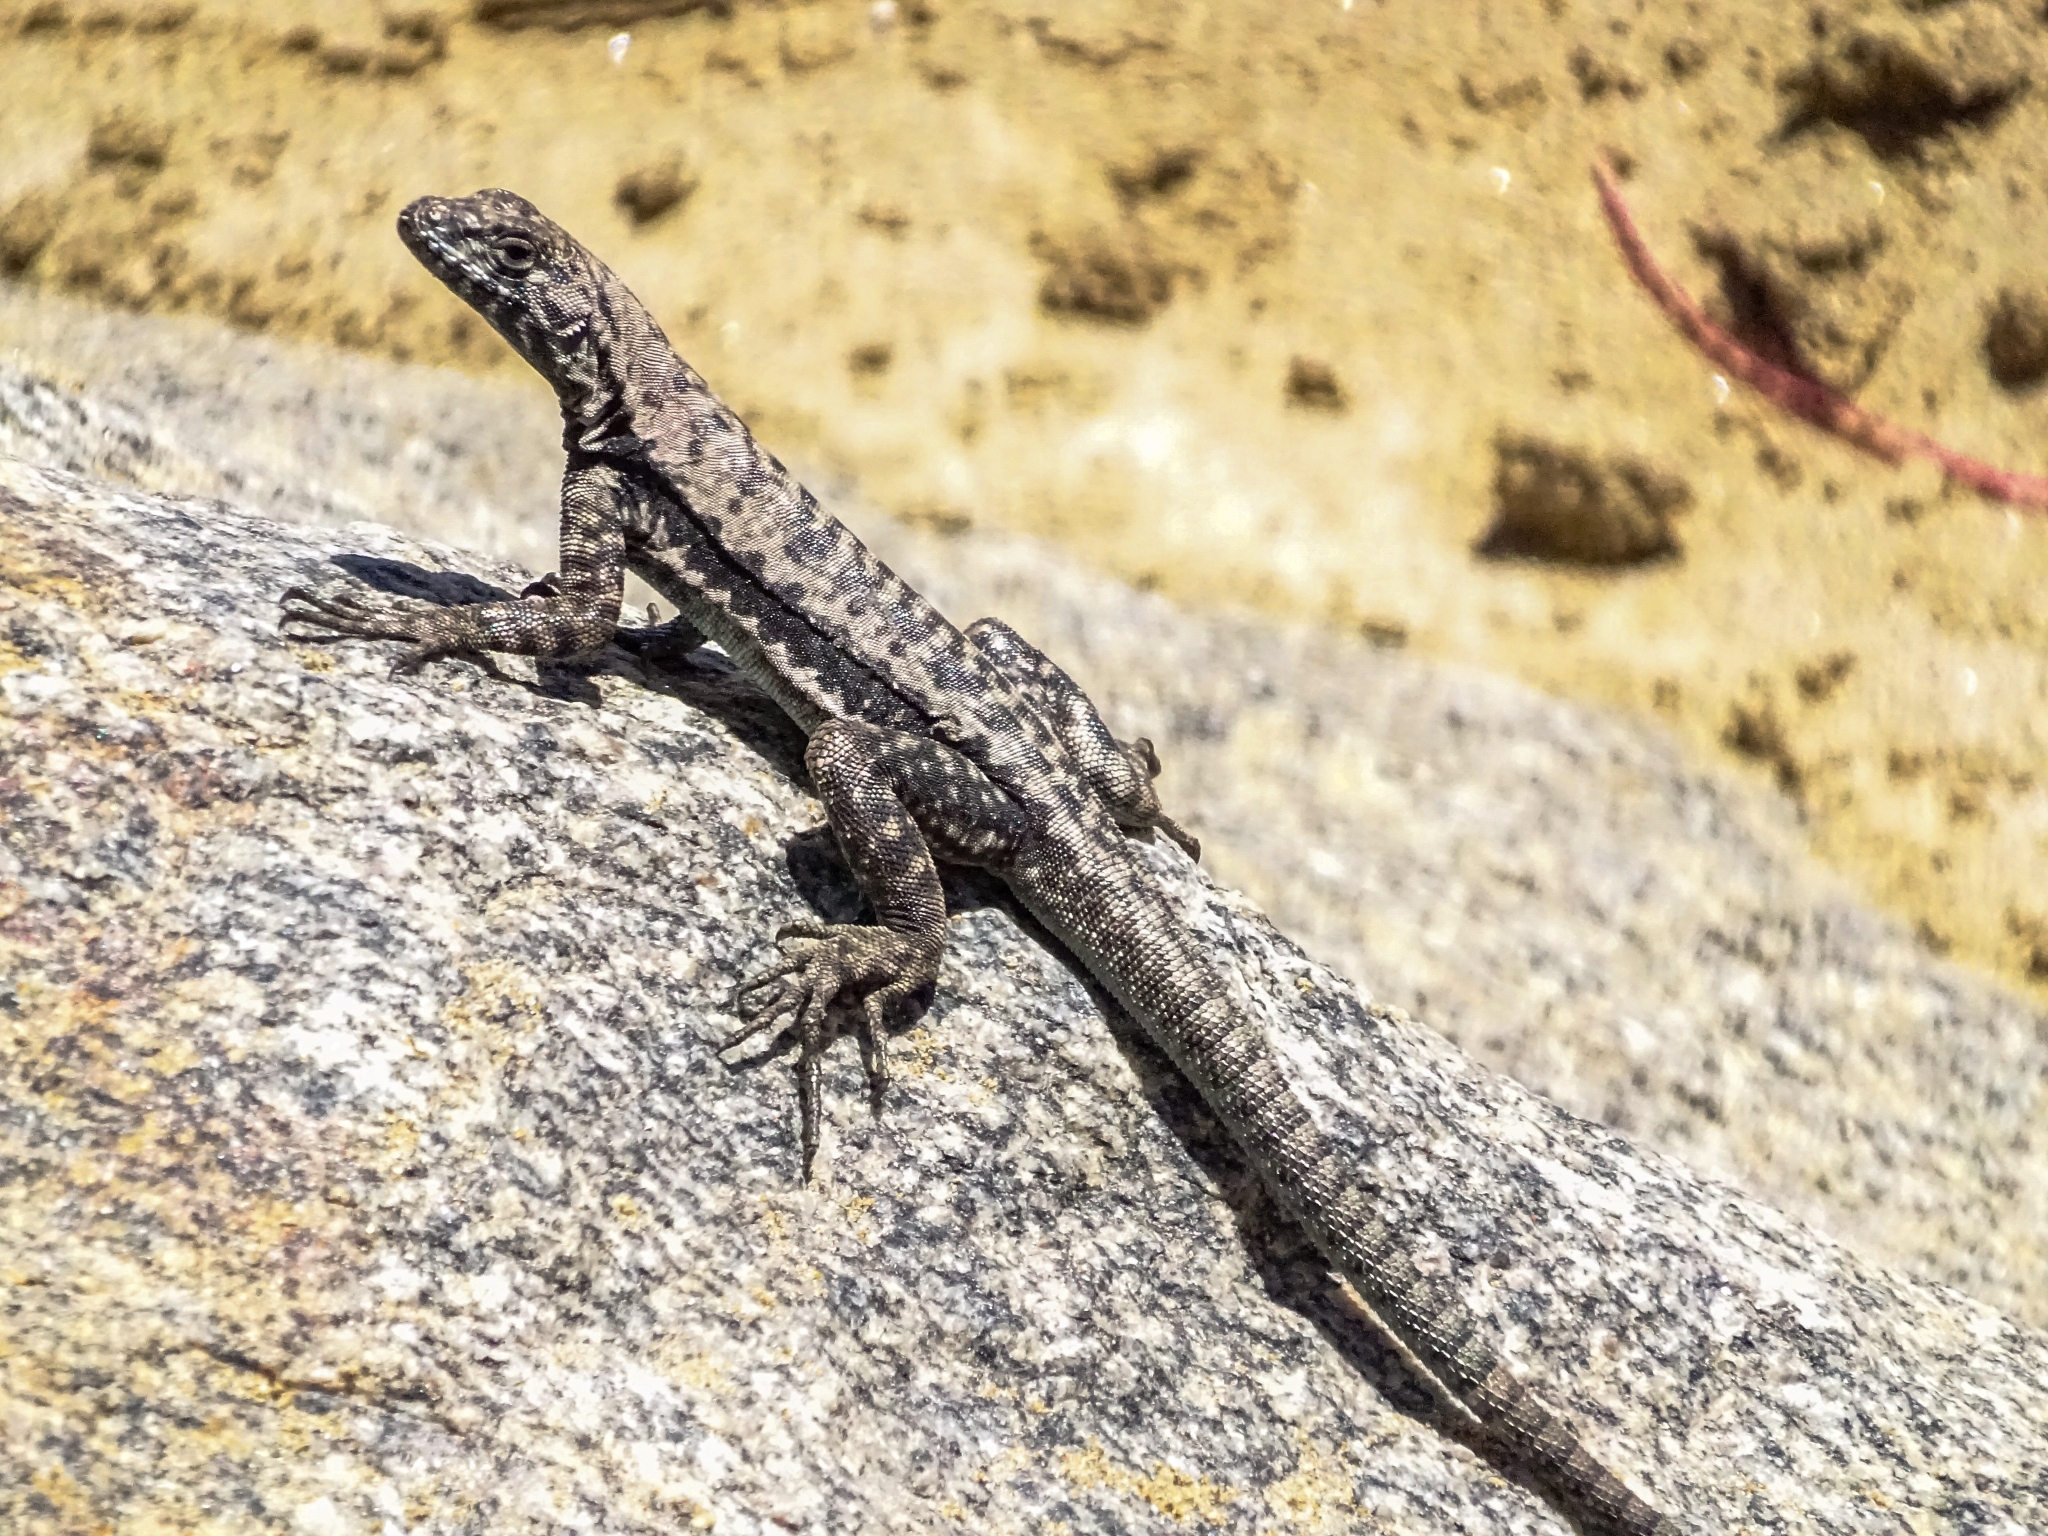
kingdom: Animalia
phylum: Chordata
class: Squamata
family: Tropiduridae
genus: Microlophus
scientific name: Microlophus atacamensis
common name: Atacamen pacific iguana
